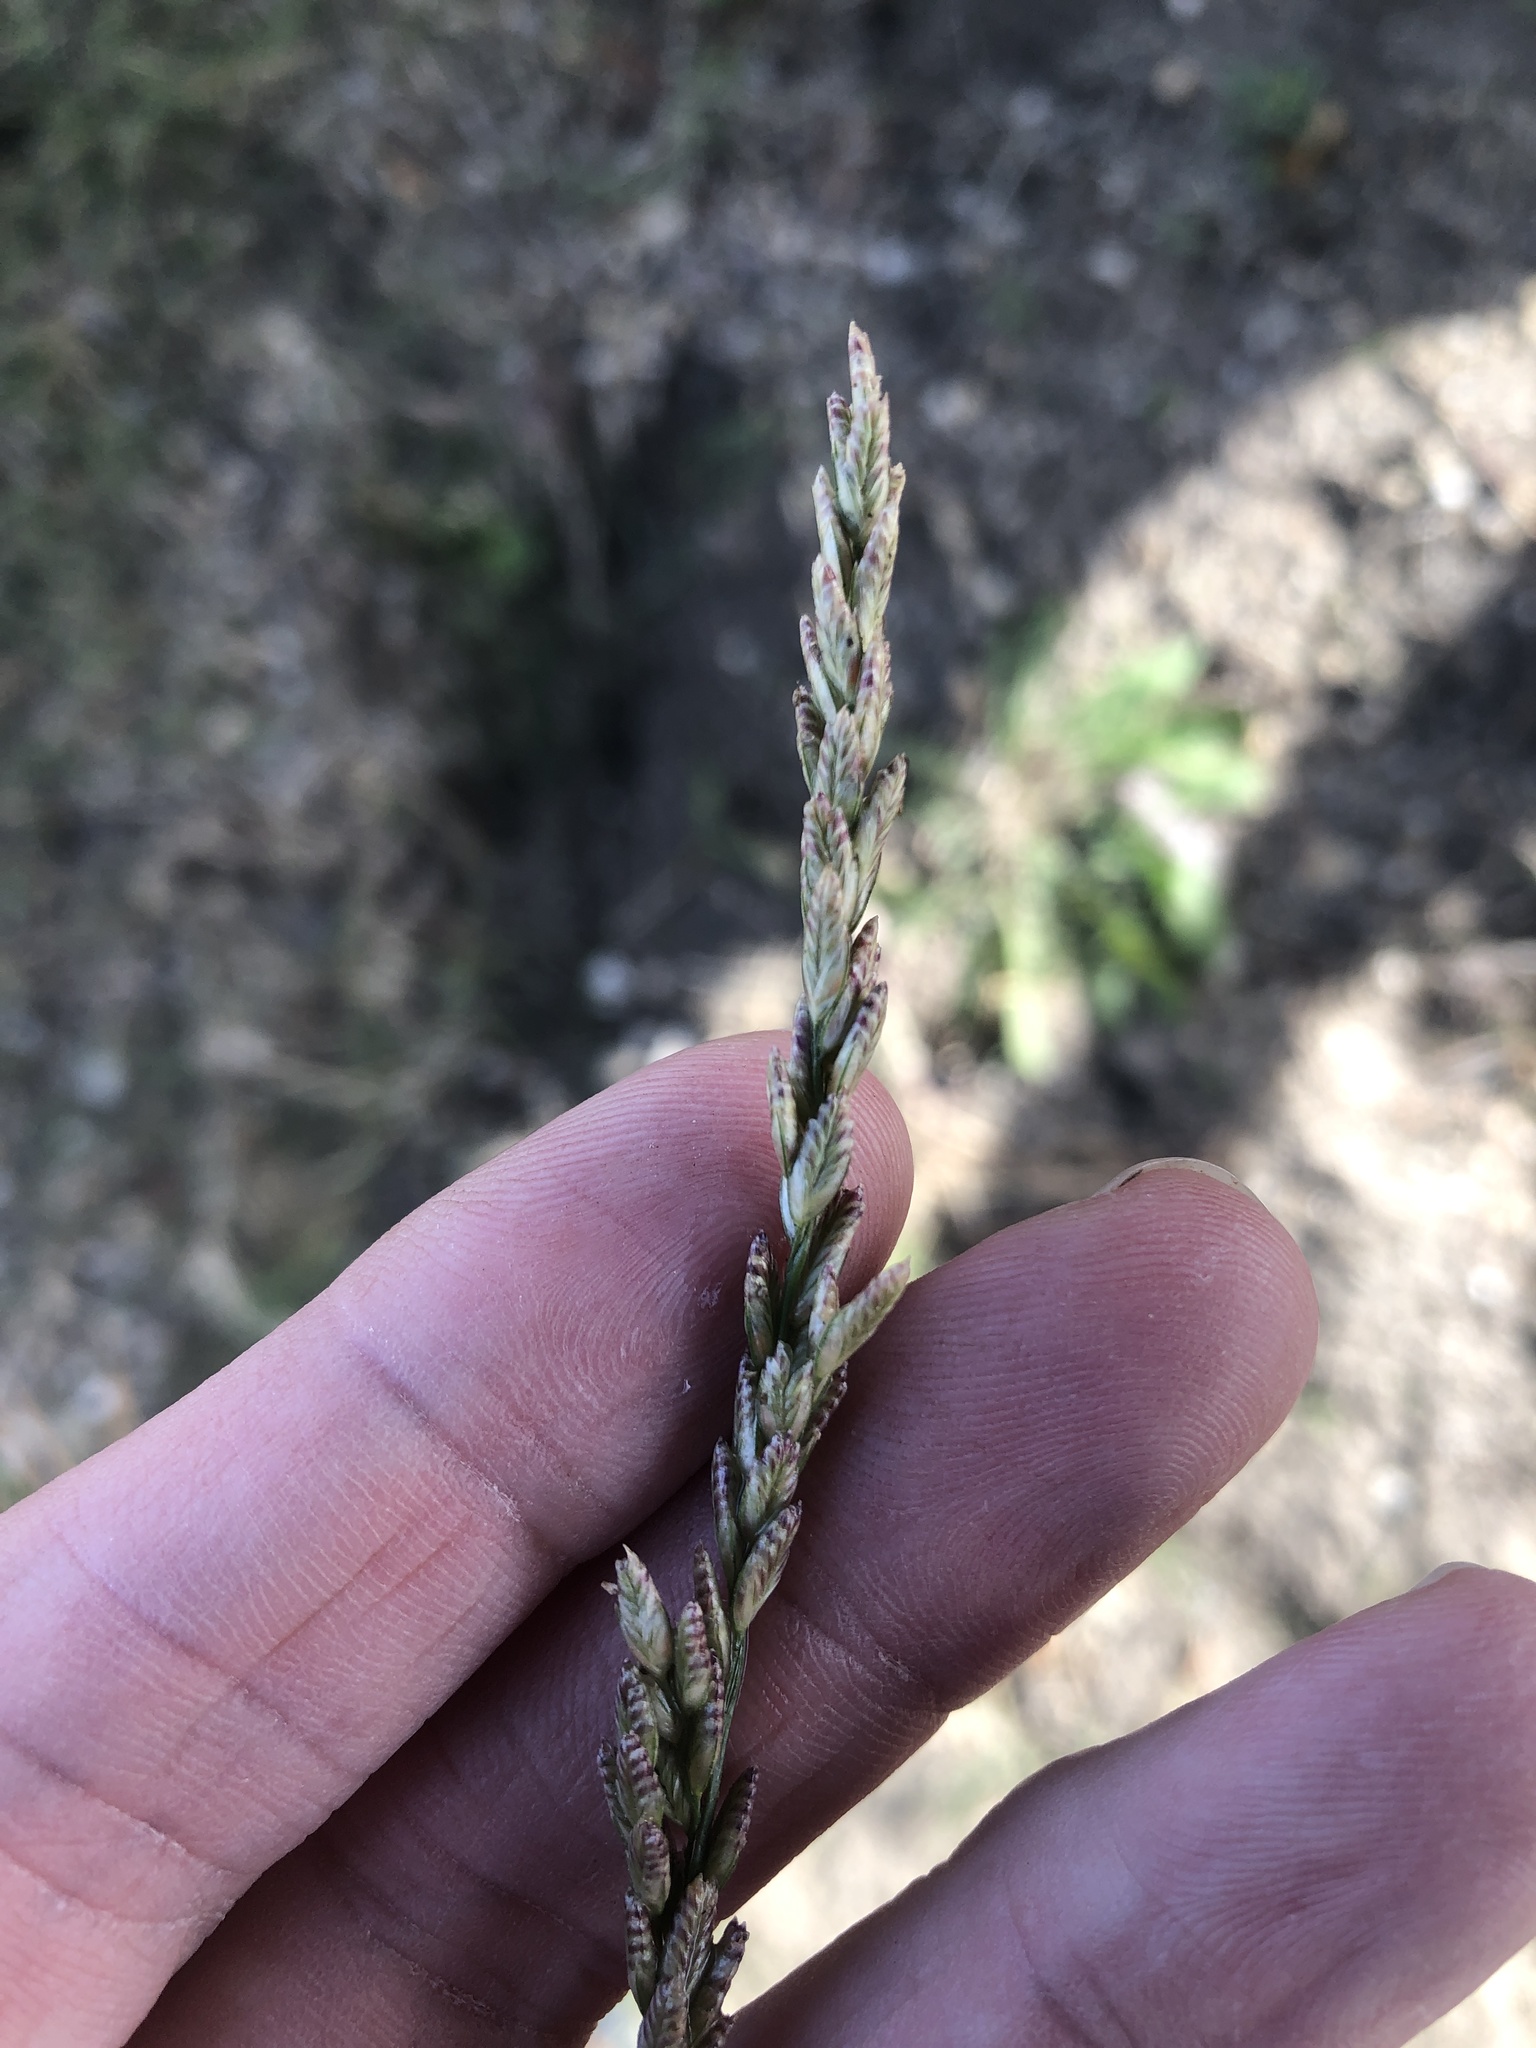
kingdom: Plantae
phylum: Tracheophyta
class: Liliopsida
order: Poales
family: Poaceae
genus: Tridens
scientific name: Tridens albescens
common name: White tridens
